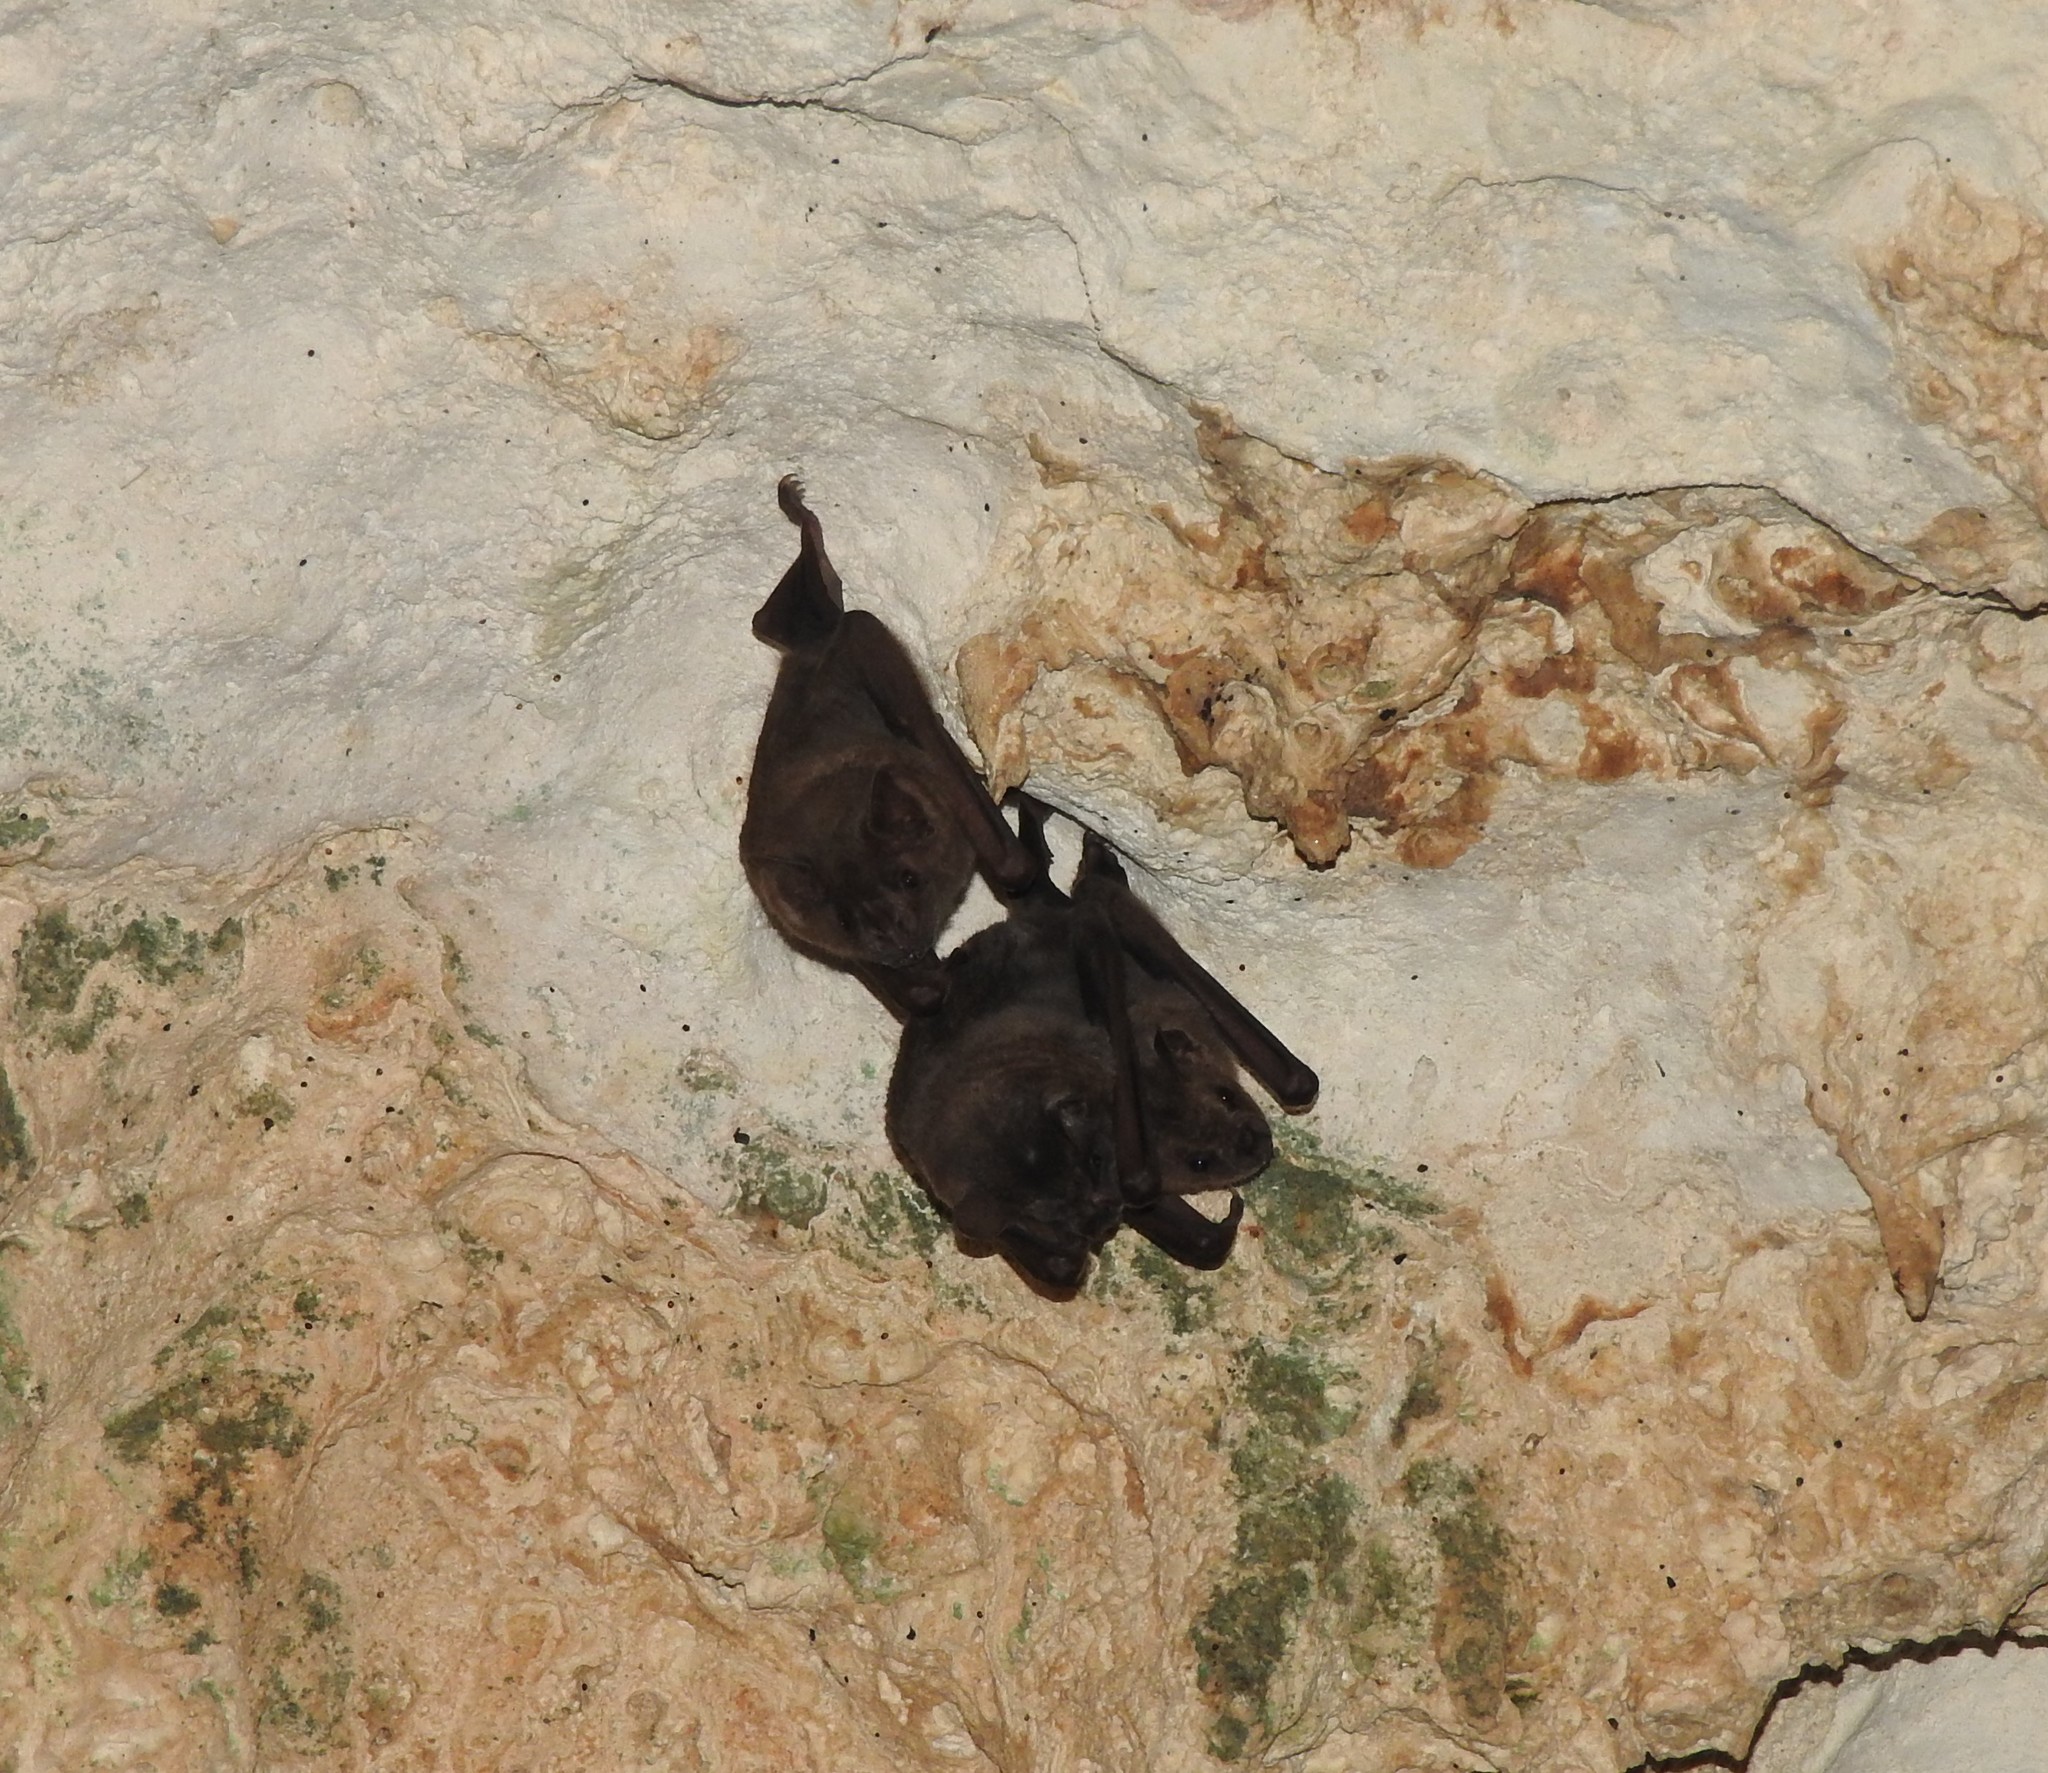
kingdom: Animalia
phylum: Chordata
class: Mammalia
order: Chiroptera
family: Phyllostomidae
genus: Artibeus
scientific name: Artibeus jamaicensis
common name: Jamaican fruit-eating bat
